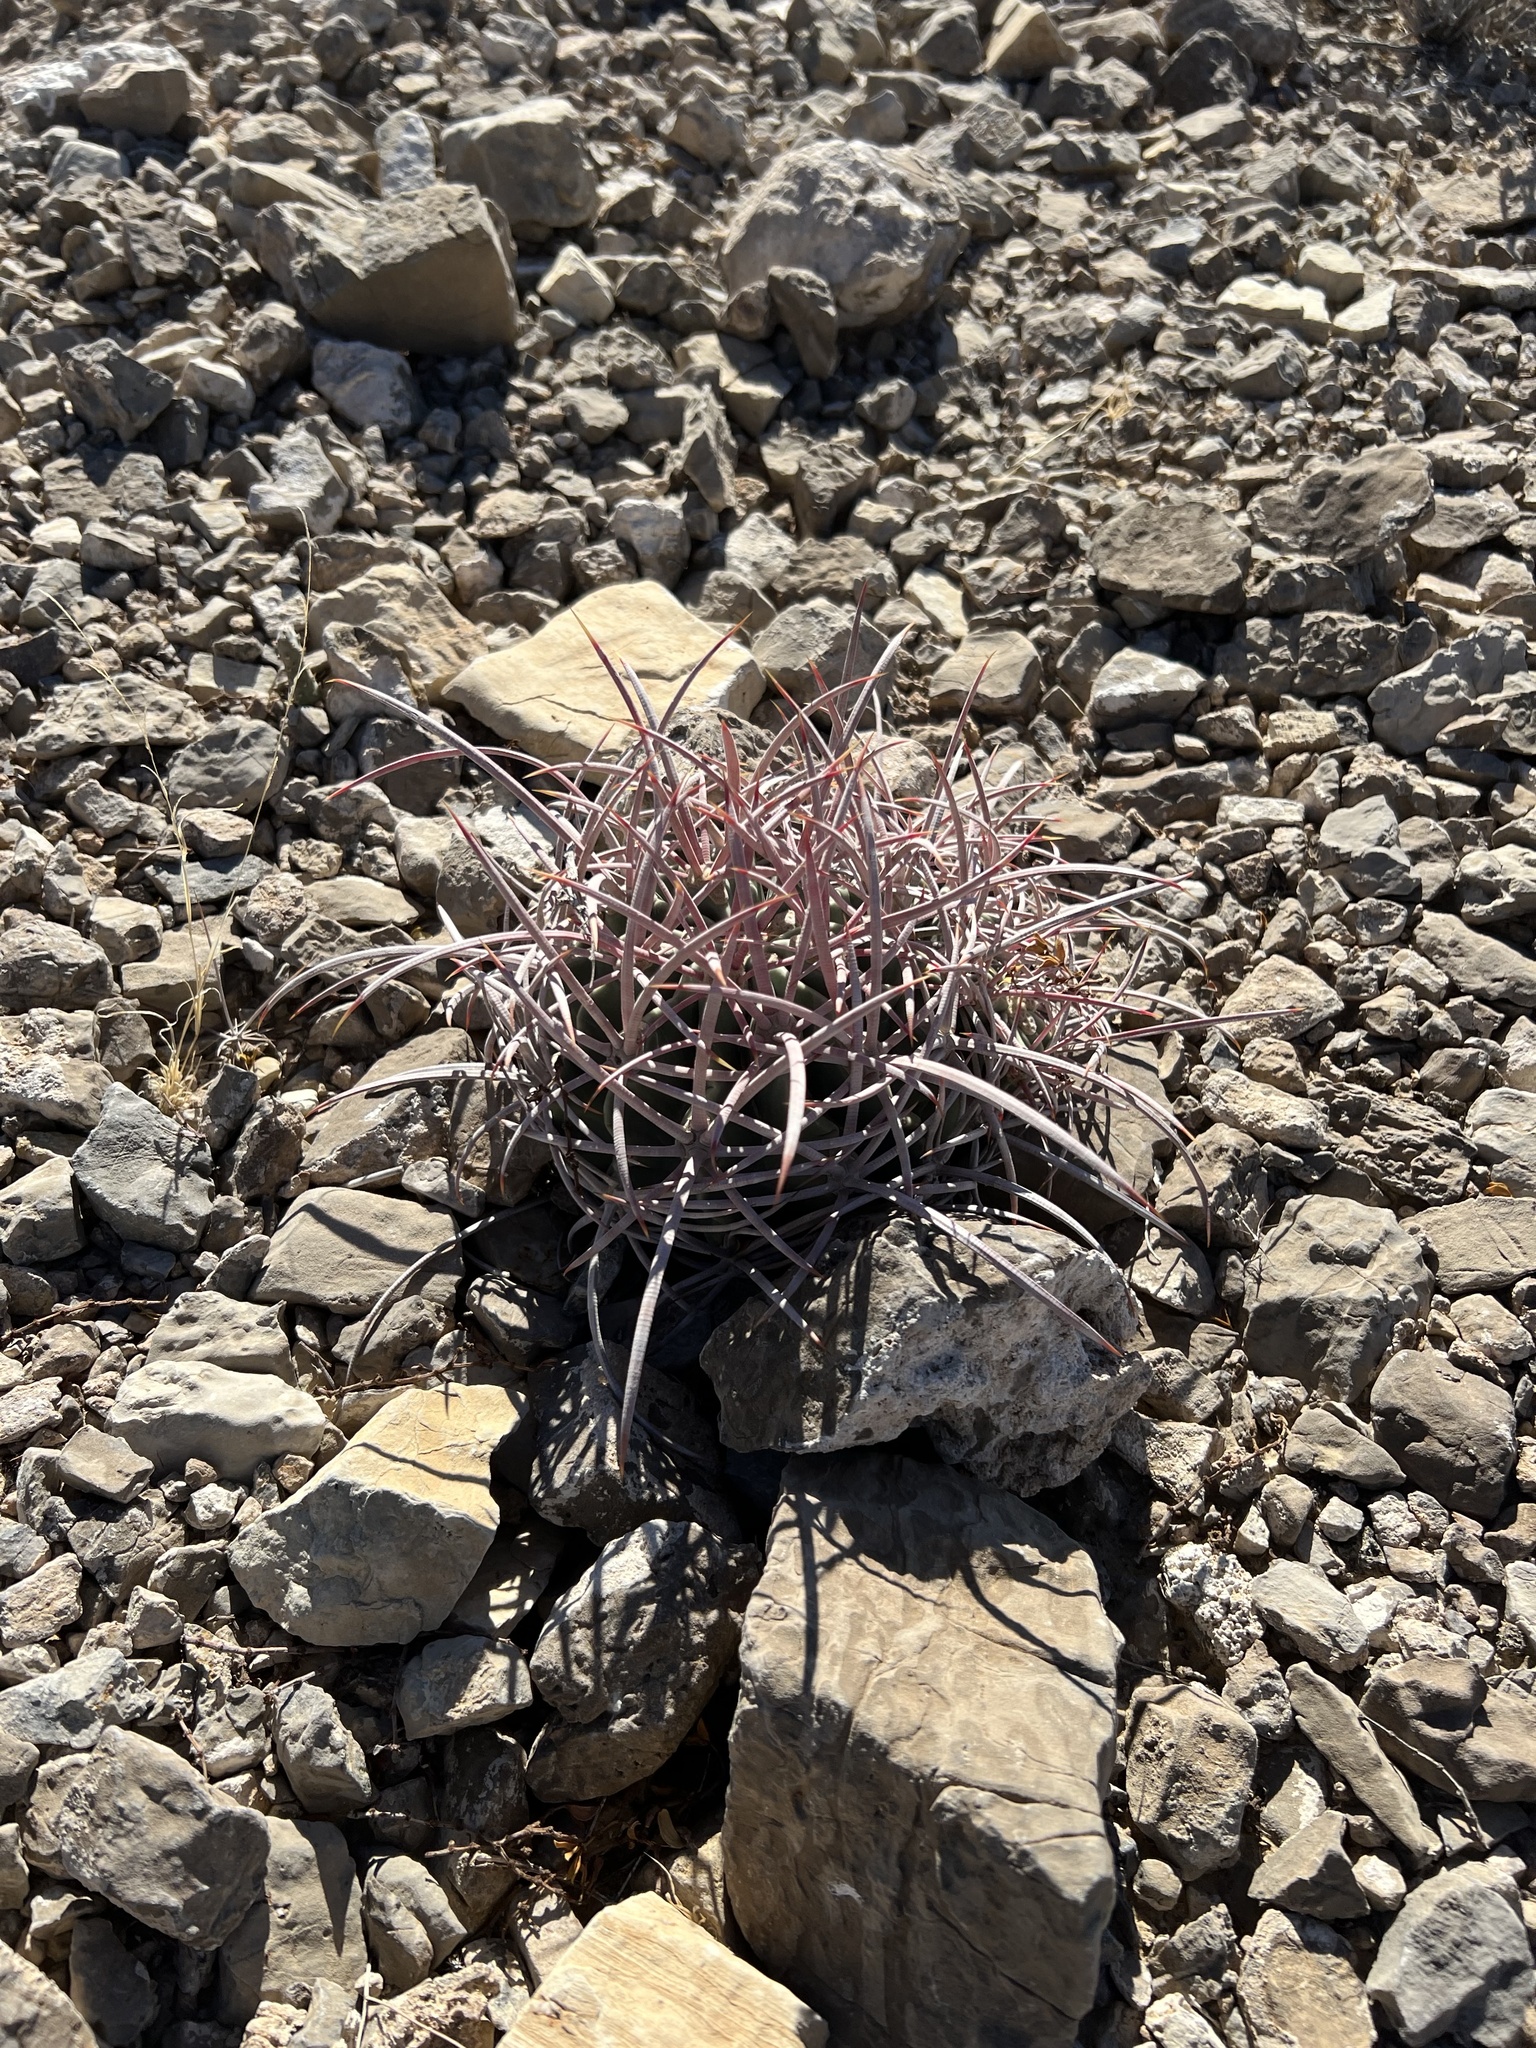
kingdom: Plantae
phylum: Tracheophyta
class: Magnoliopsida
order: Caryophyllales
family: Cactaceae
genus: Echinocactus
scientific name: Echinocactus polycephalus
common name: Cottontop cactus
